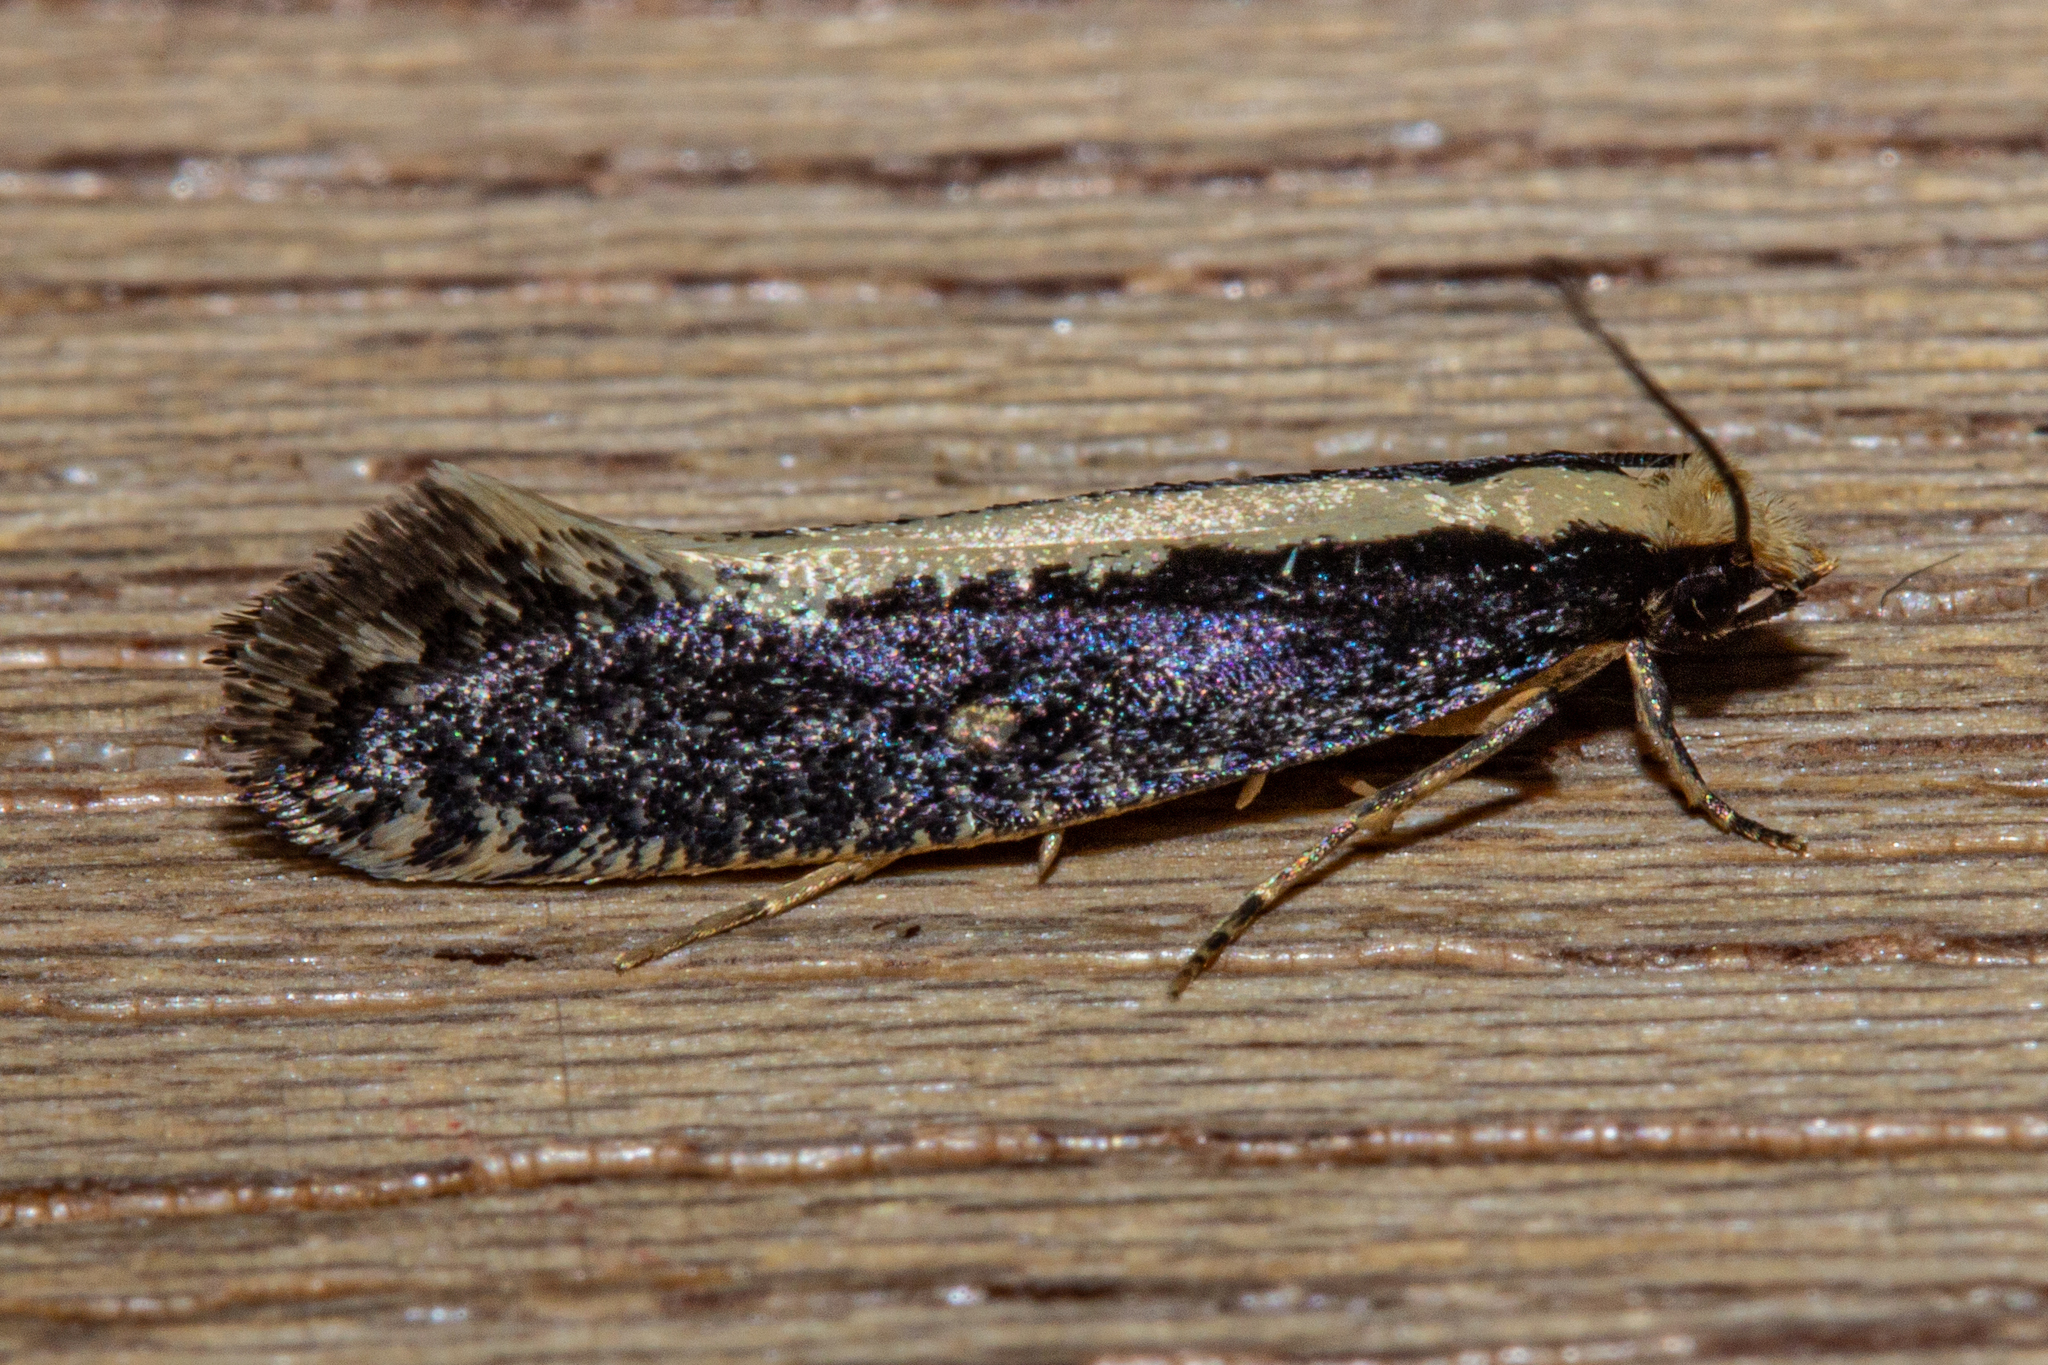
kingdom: Animalia
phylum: Arthropoda
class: Insecta
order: Lepidoptera
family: Tineidae
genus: Monopis
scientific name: Monopis ethelella
